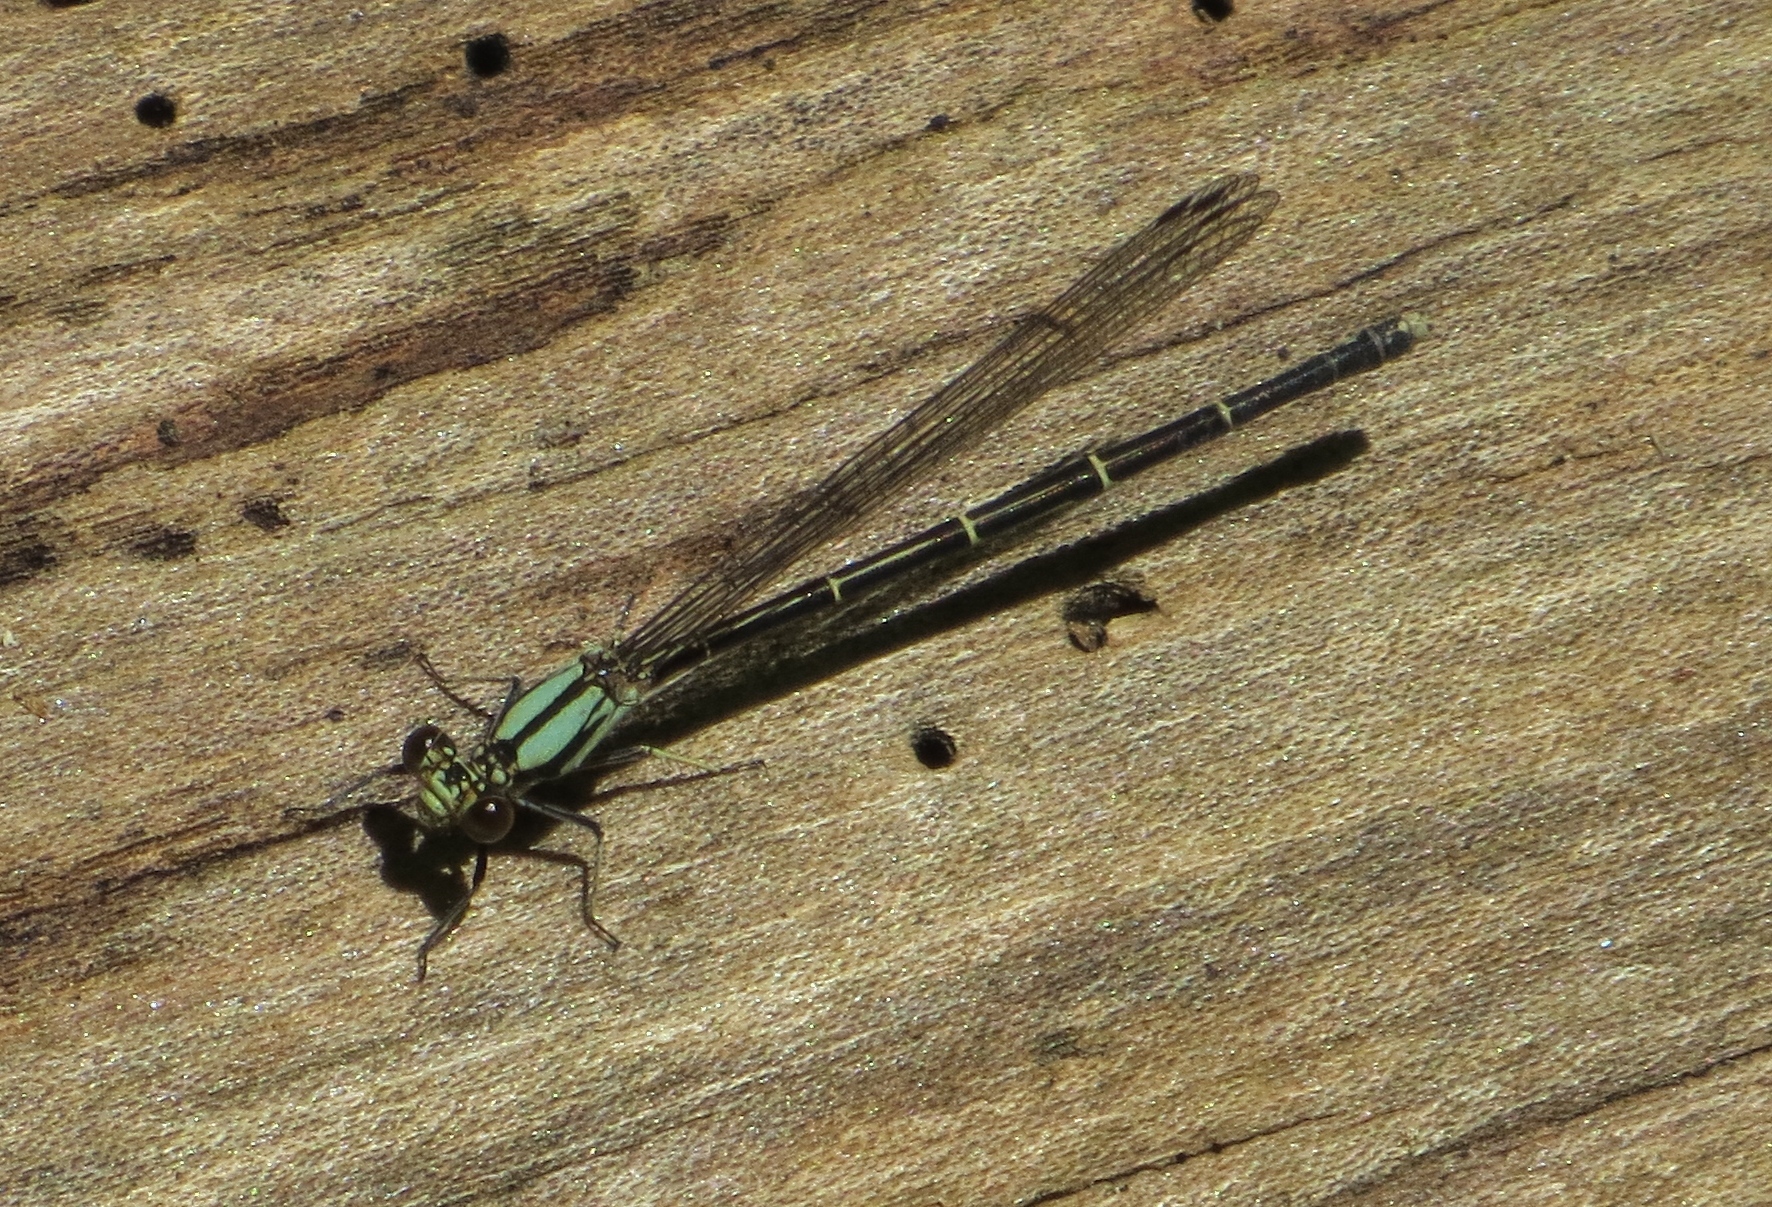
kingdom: Animalia
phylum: Arthropoda
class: Insecta
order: Odonata
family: Coenagrionidae
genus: Argia
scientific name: Argia tibialis
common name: Blue-tipped dancer
